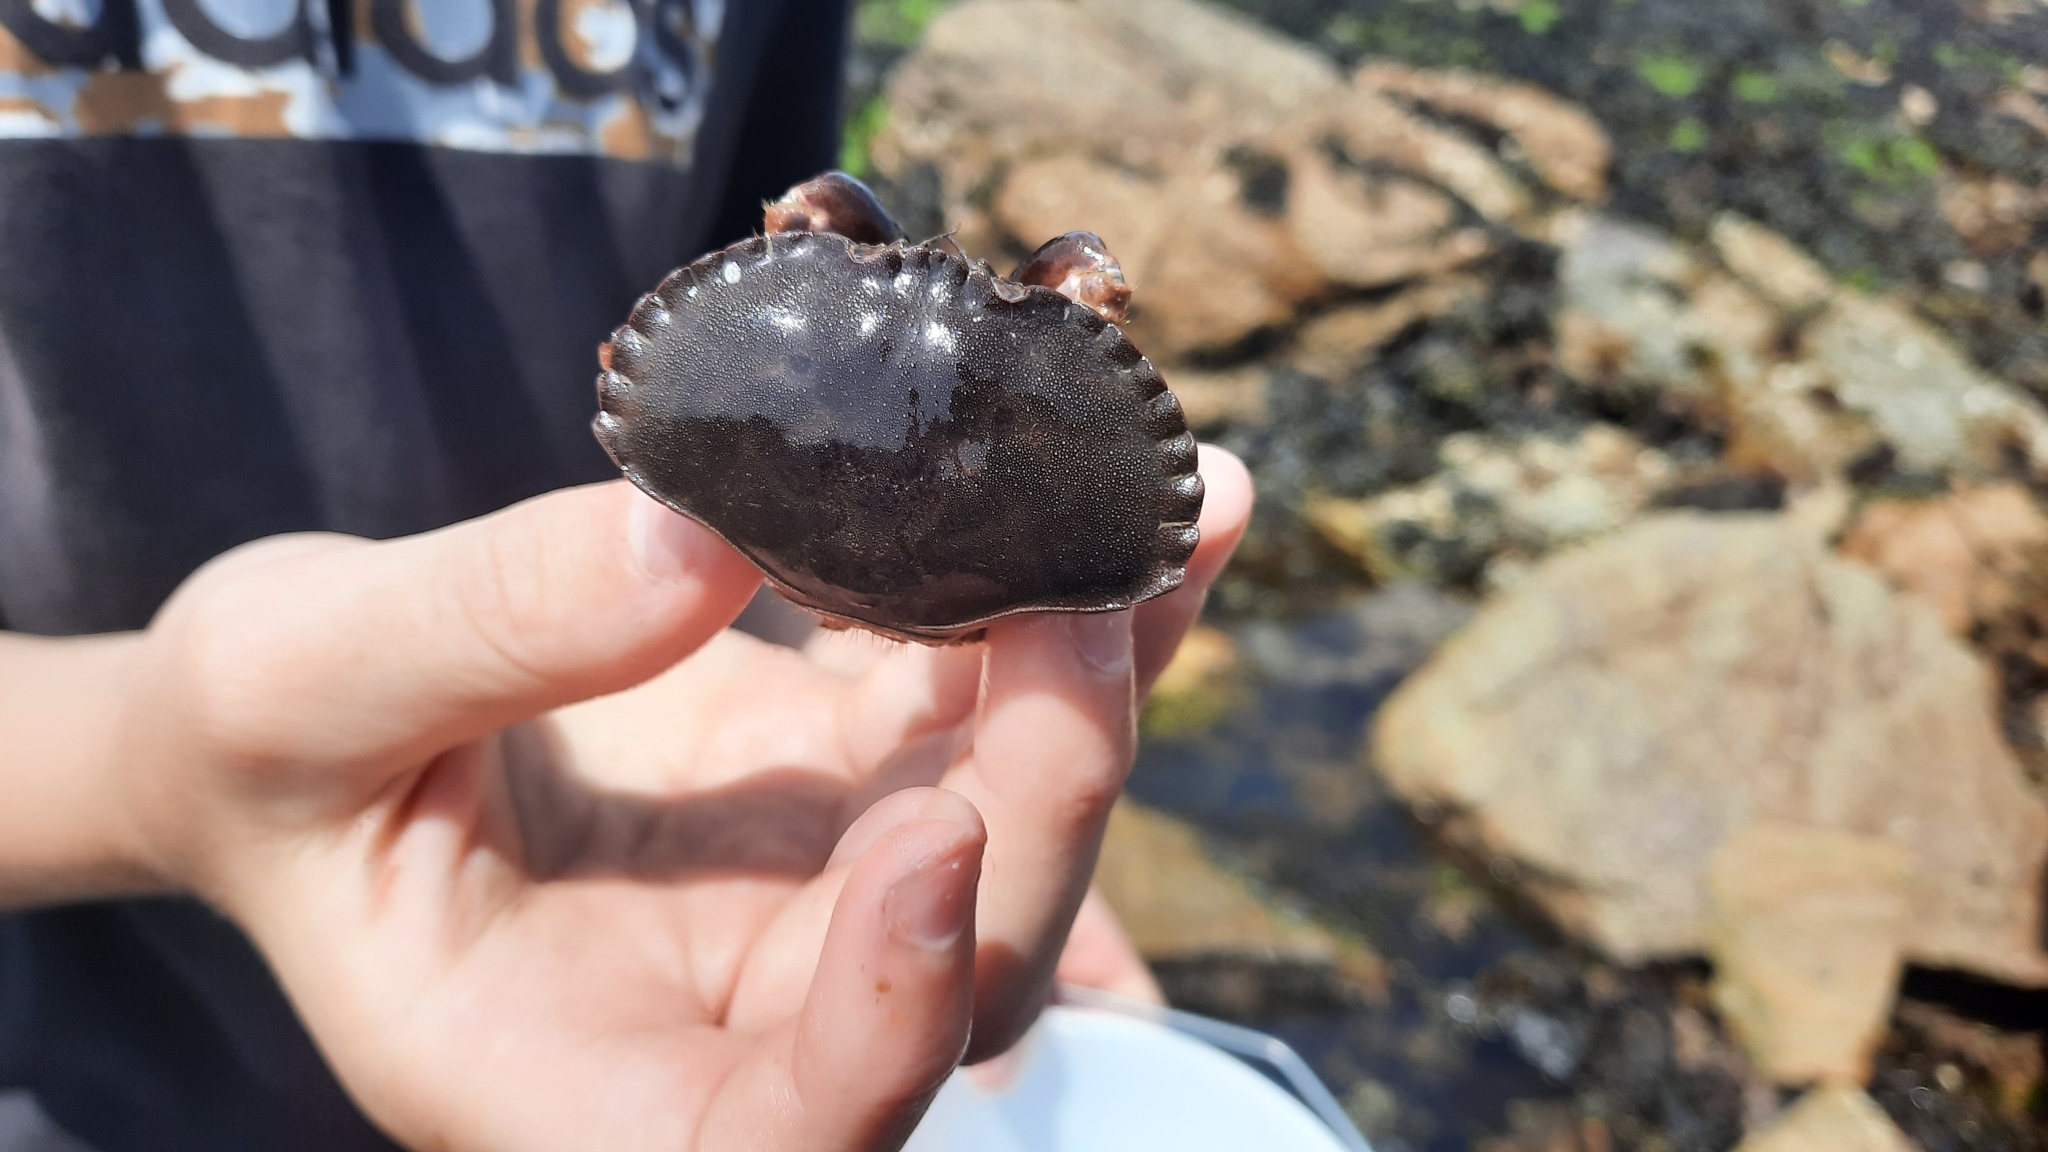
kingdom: Animalia
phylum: Arthropoda
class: Malacostraca
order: Decapoda
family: Cancridae
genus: Cancer
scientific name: Cancer pagurus
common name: Edible crab
